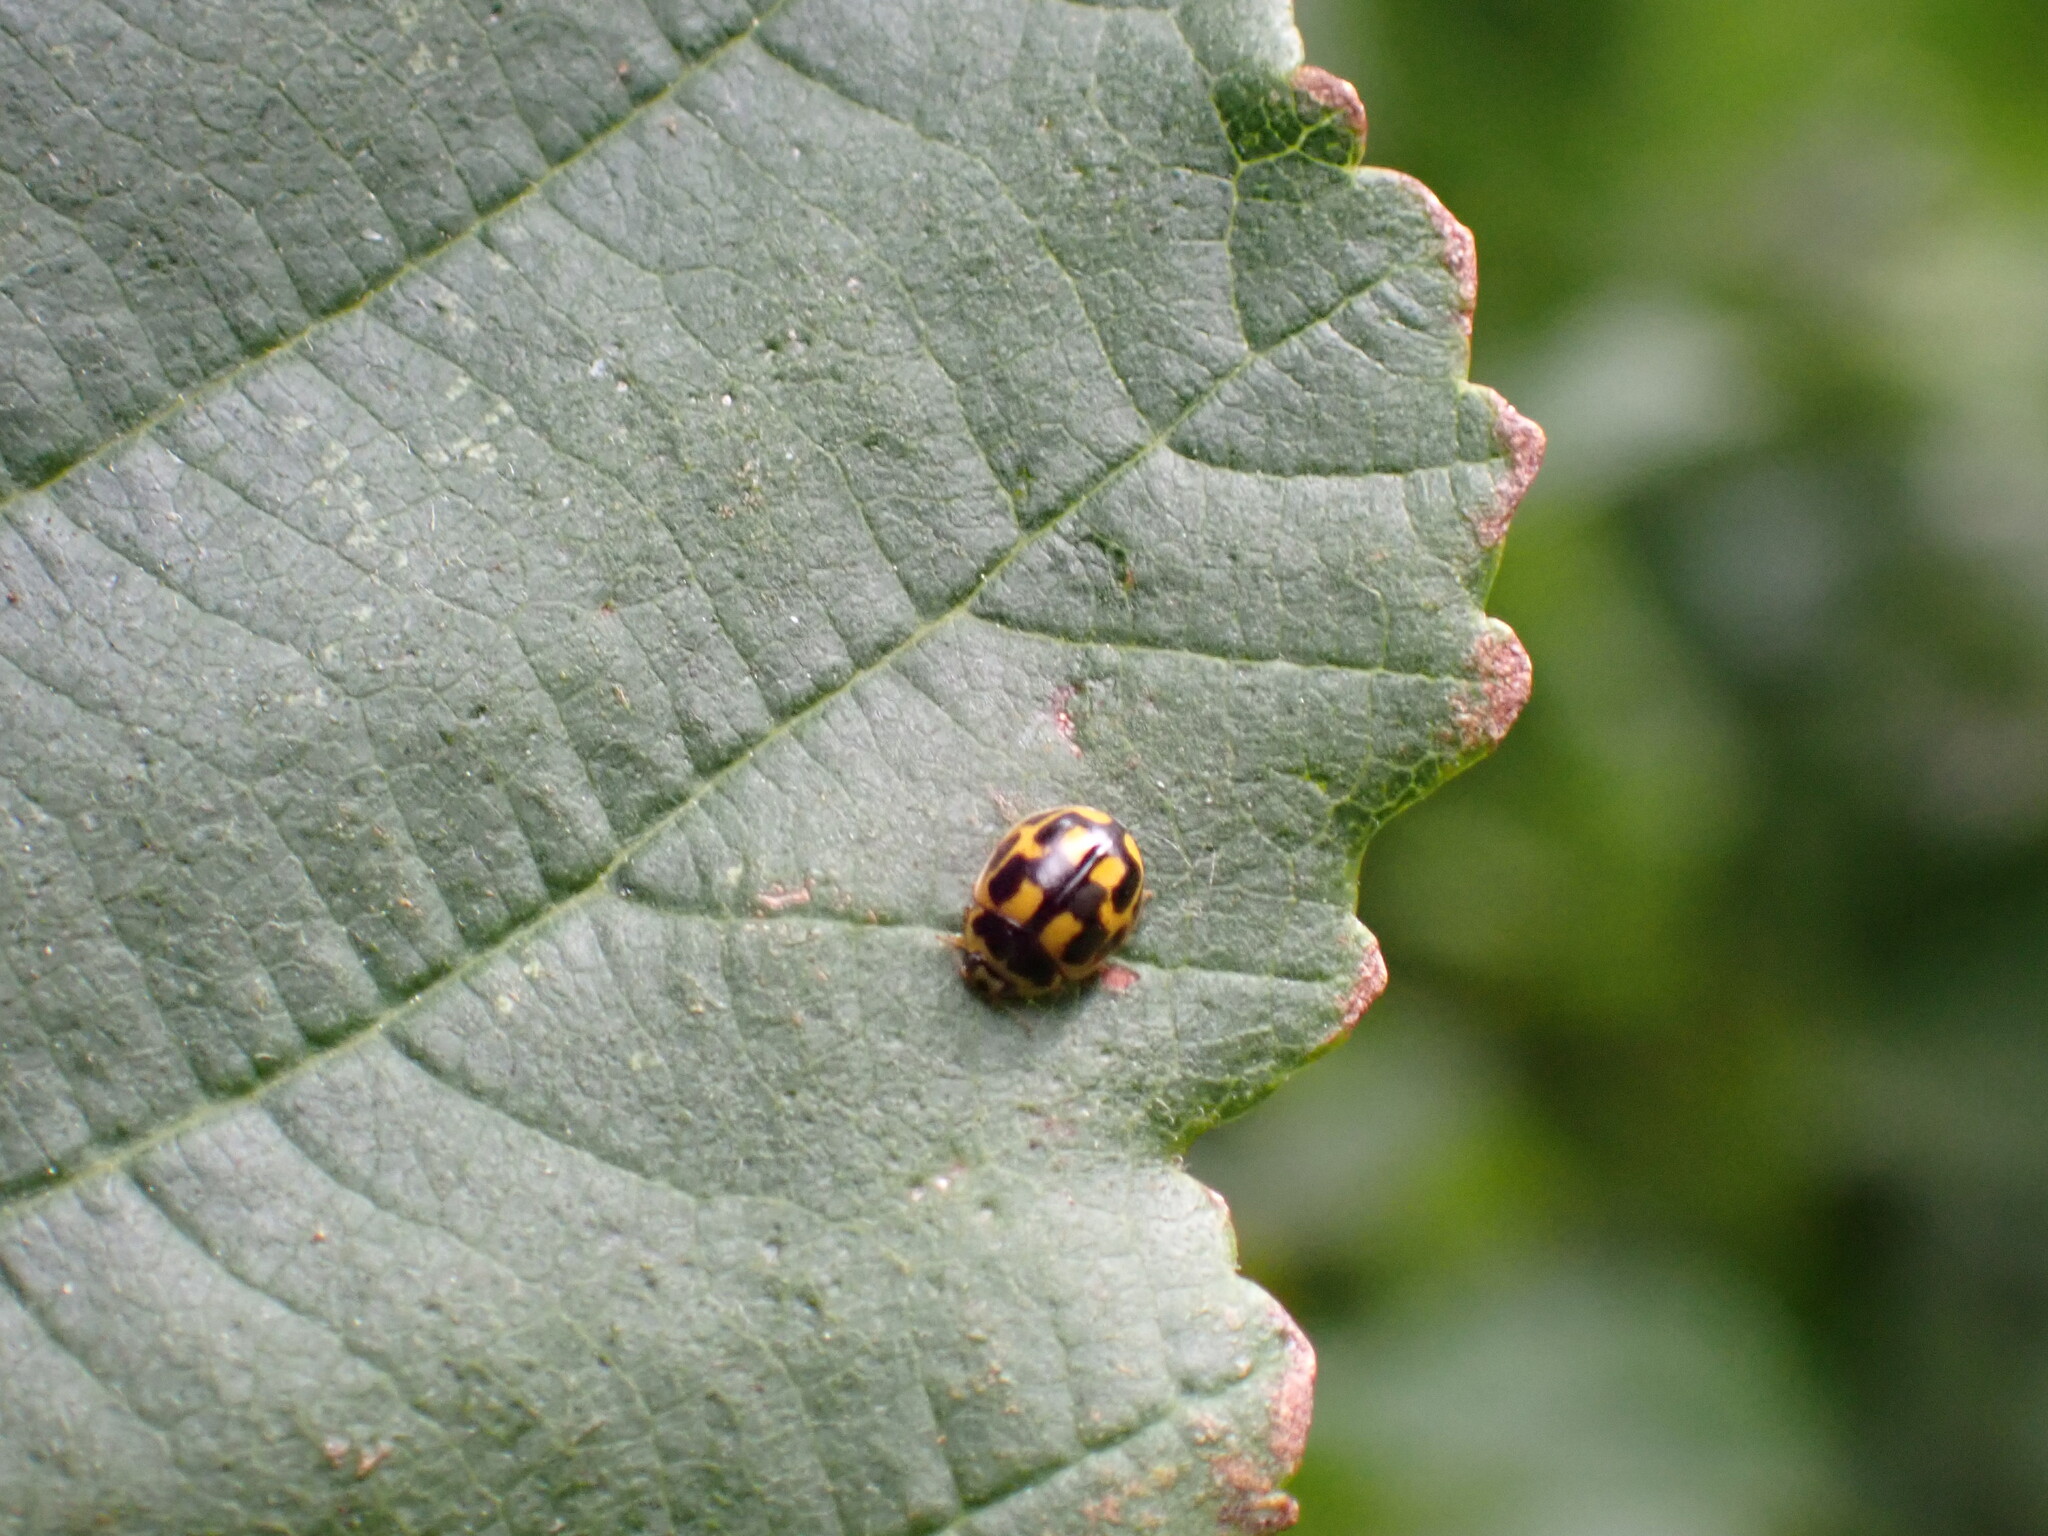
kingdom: Animalia
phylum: Arthropoda
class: Insecta
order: Coleoptera
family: Coccinellidae
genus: Propylaea
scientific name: Propylaea quatuordecimpunctata
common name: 14-spotted ladybird beetle
